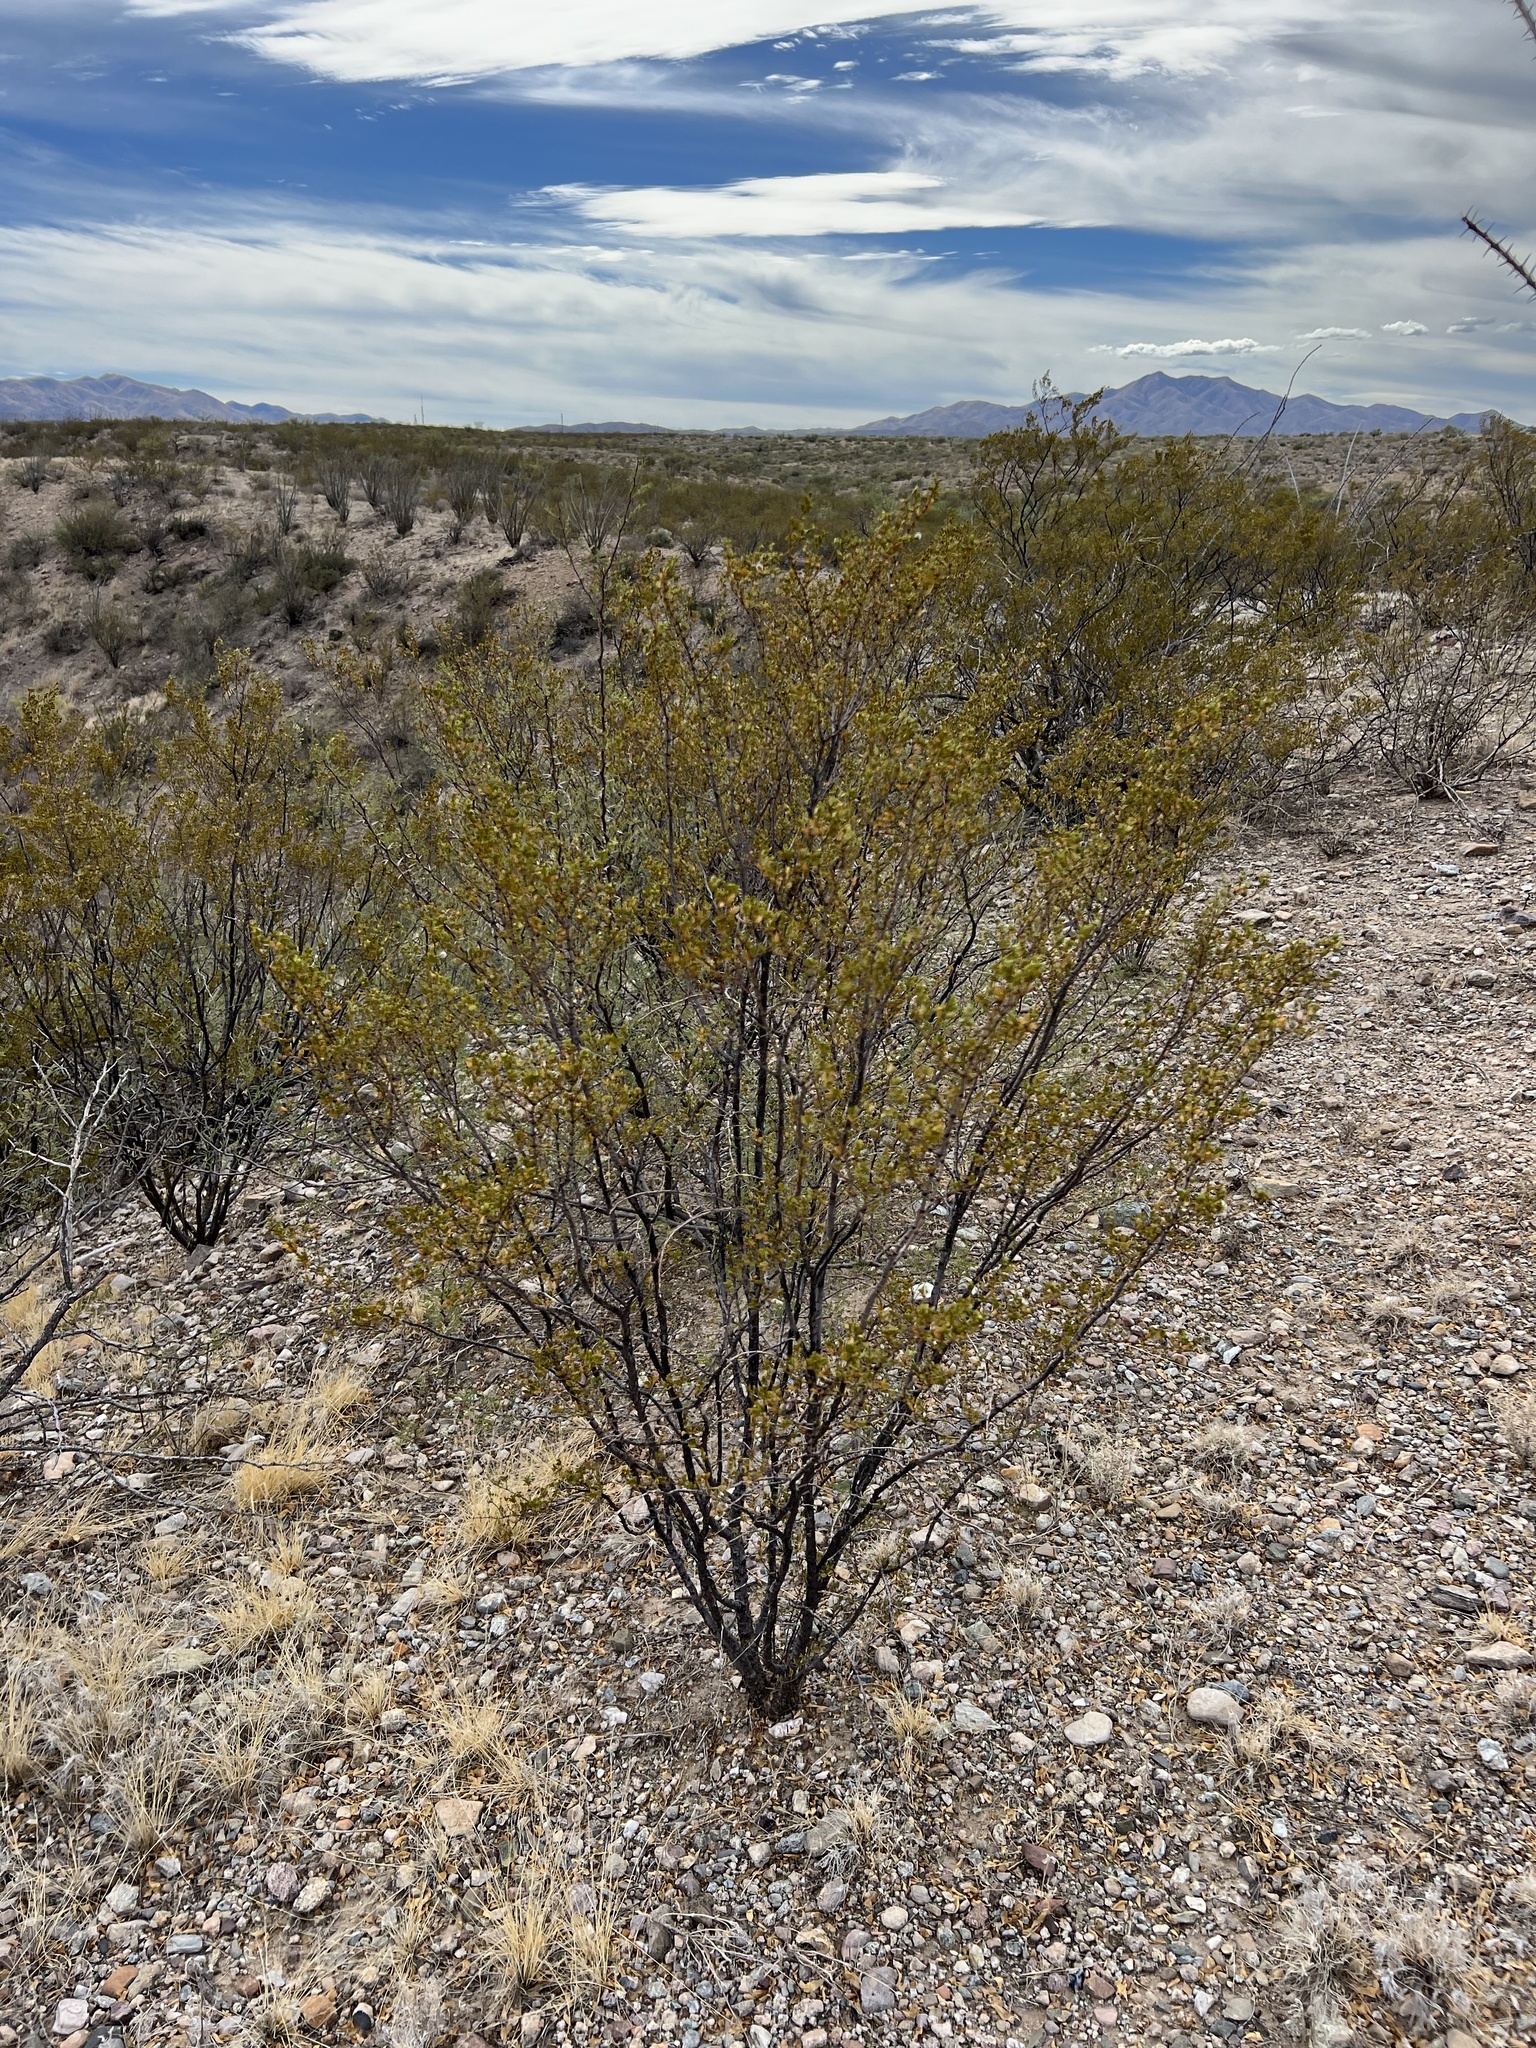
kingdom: Plantae
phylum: Tracheophyta
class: Magnoliopsida
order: Zygophyllales
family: Zygophyllaceae
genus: Larrea
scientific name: Larrea tridentata
